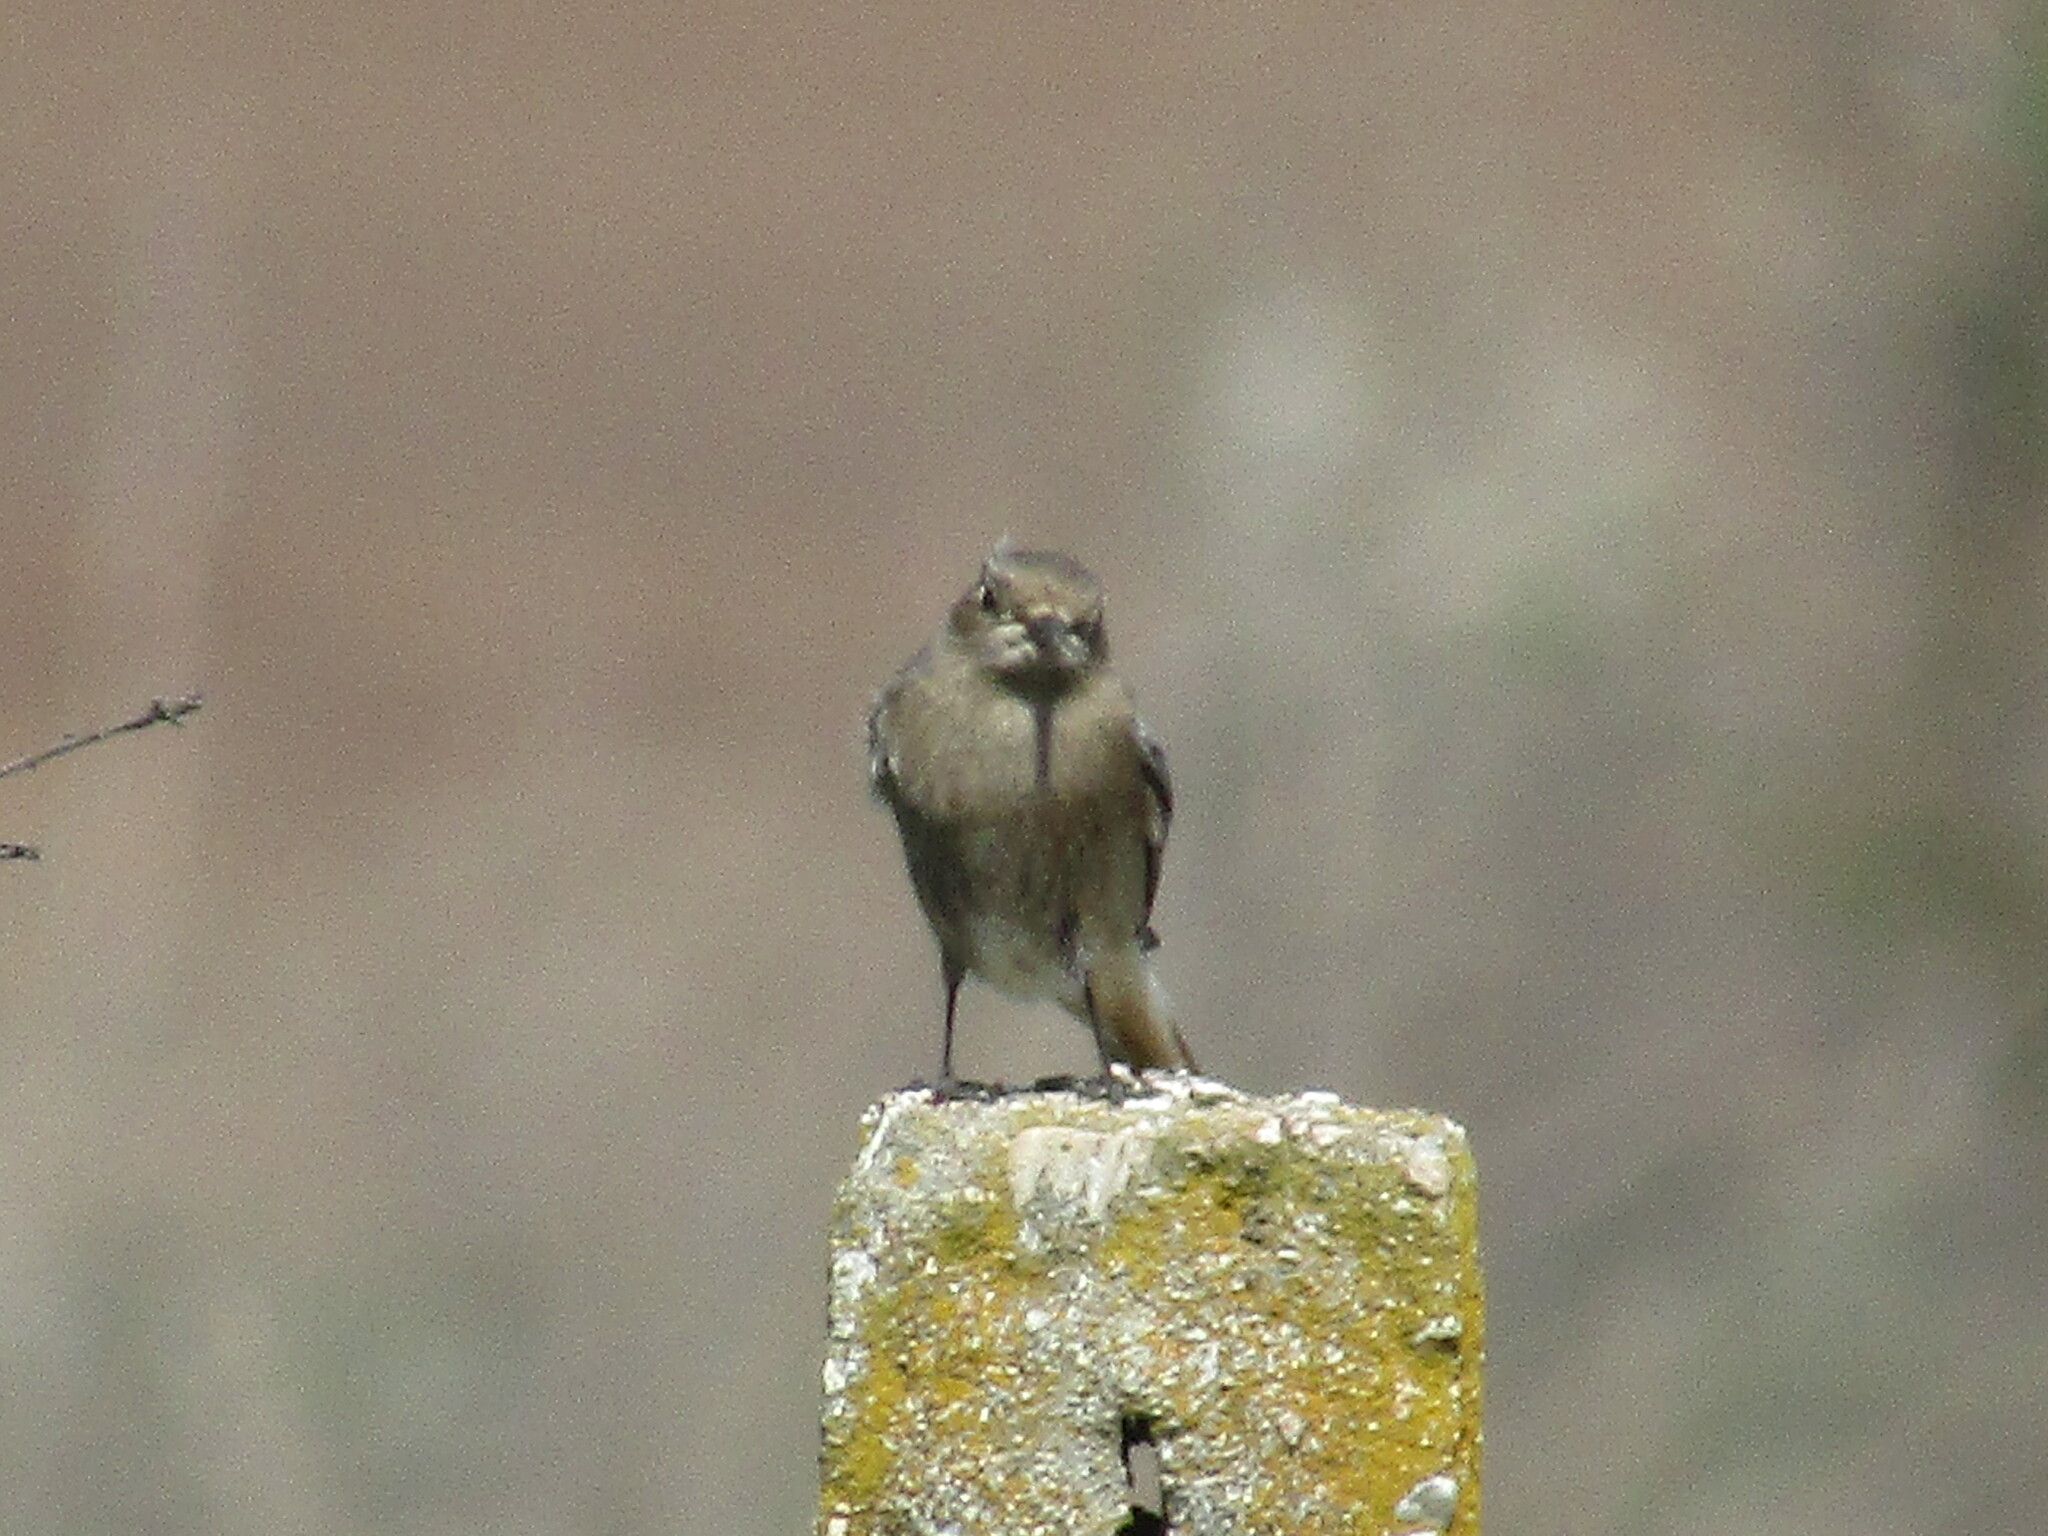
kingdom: Animalia
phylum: Chordata
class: Aves
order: Passeriformes
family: Muscicapidae
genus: Phoenicurus
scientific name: Phoenicurus ochruros
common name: Black redstart
